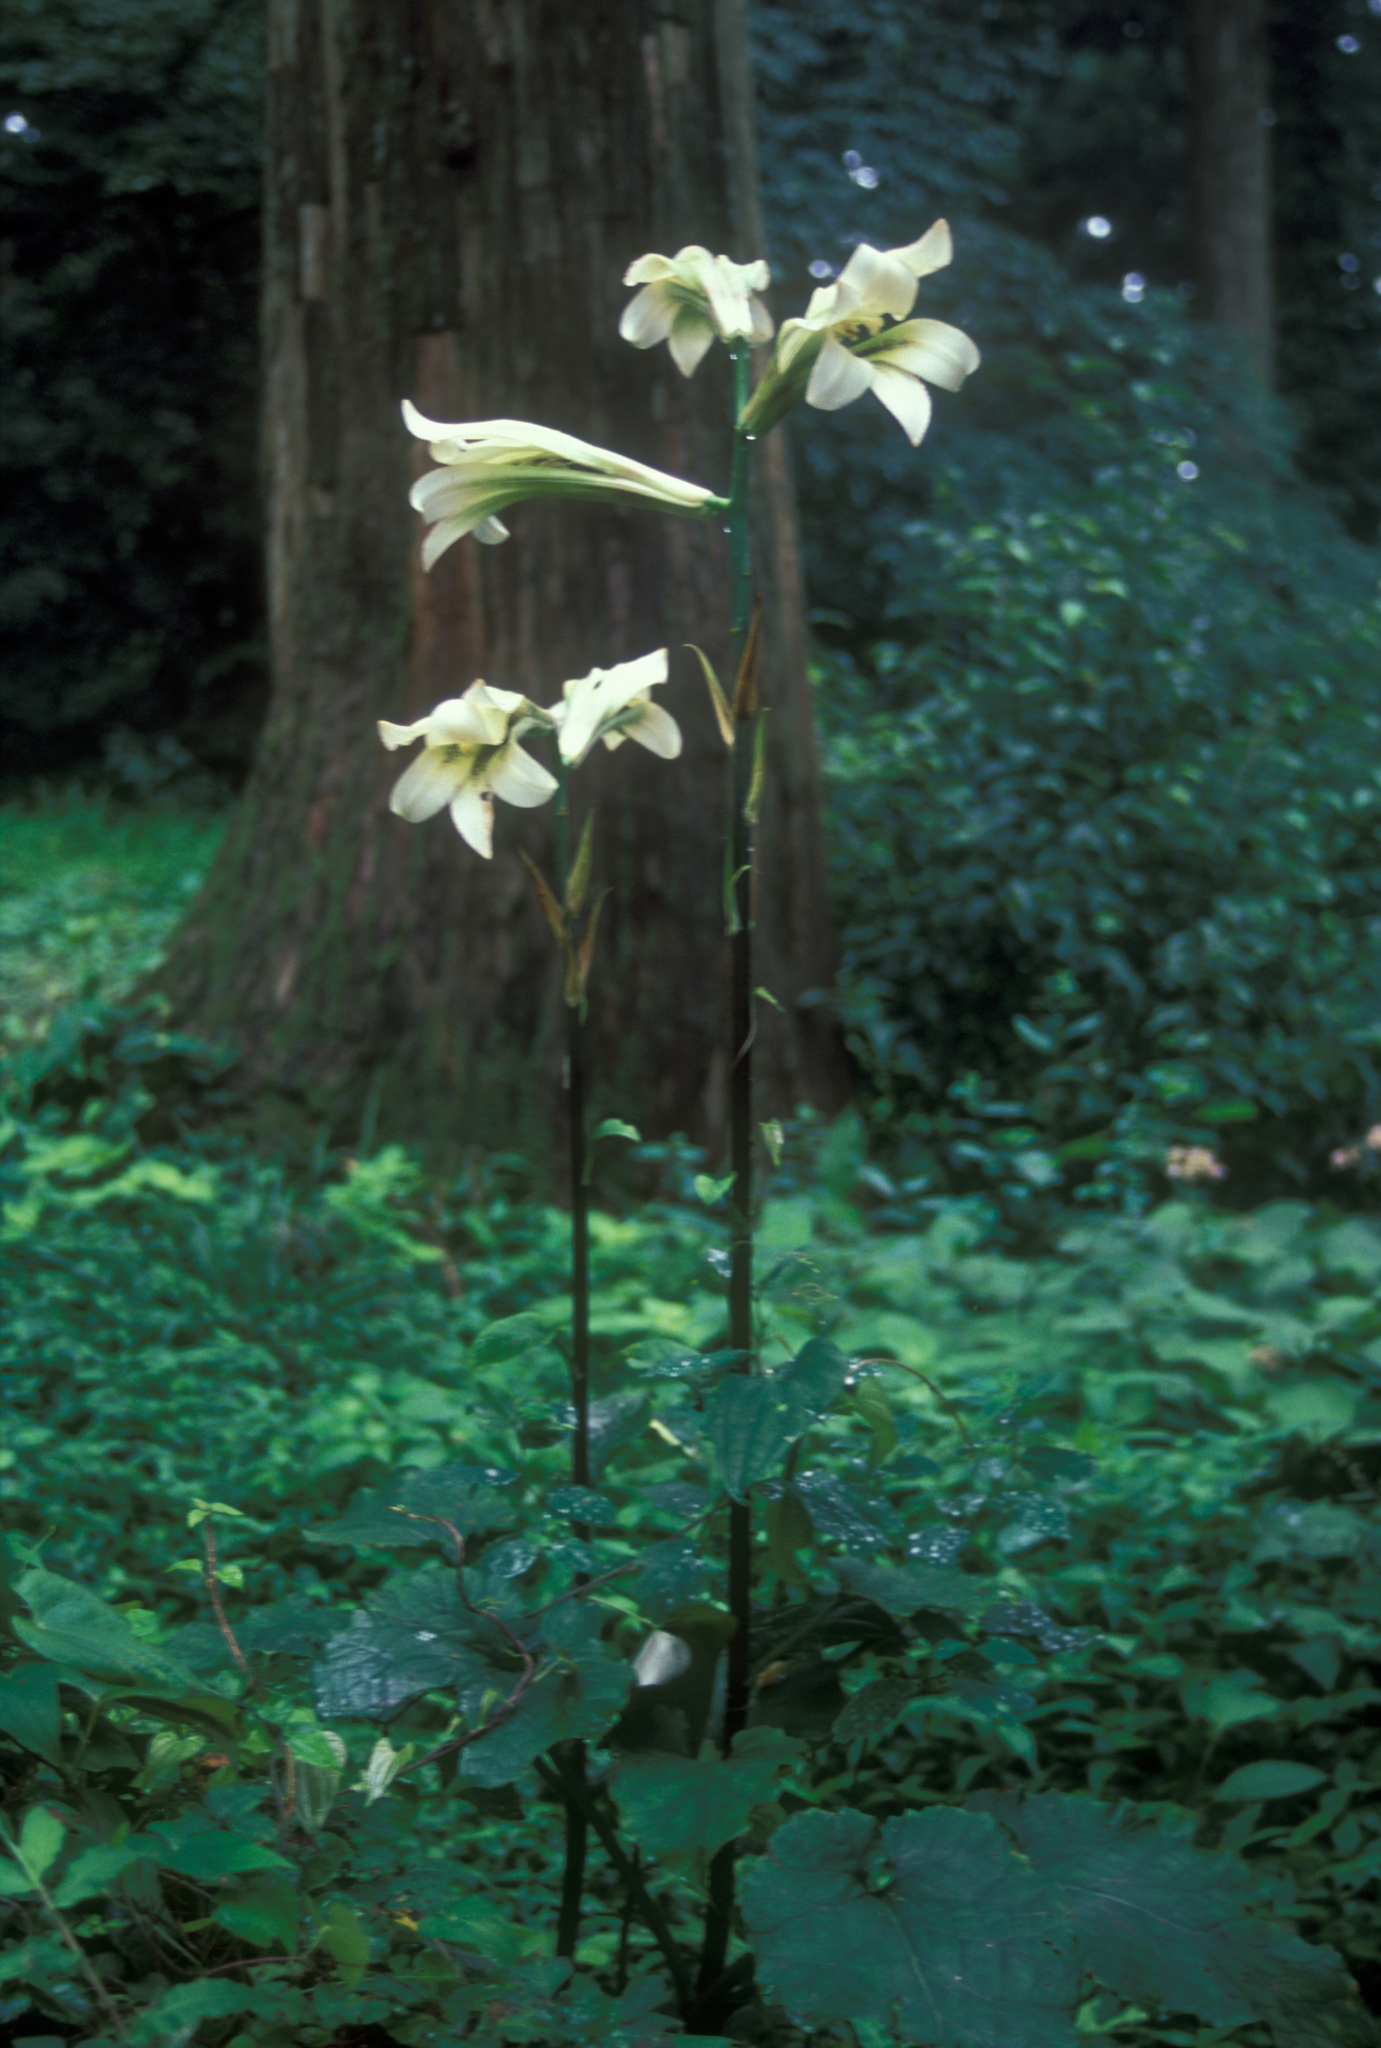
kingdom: Plantae
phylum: Tracheophyta
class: Liliopsida
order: Liliales
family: Liliaceae
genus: Cardiocrinum
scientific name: Cardiocrinum cordatum
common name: Lily
